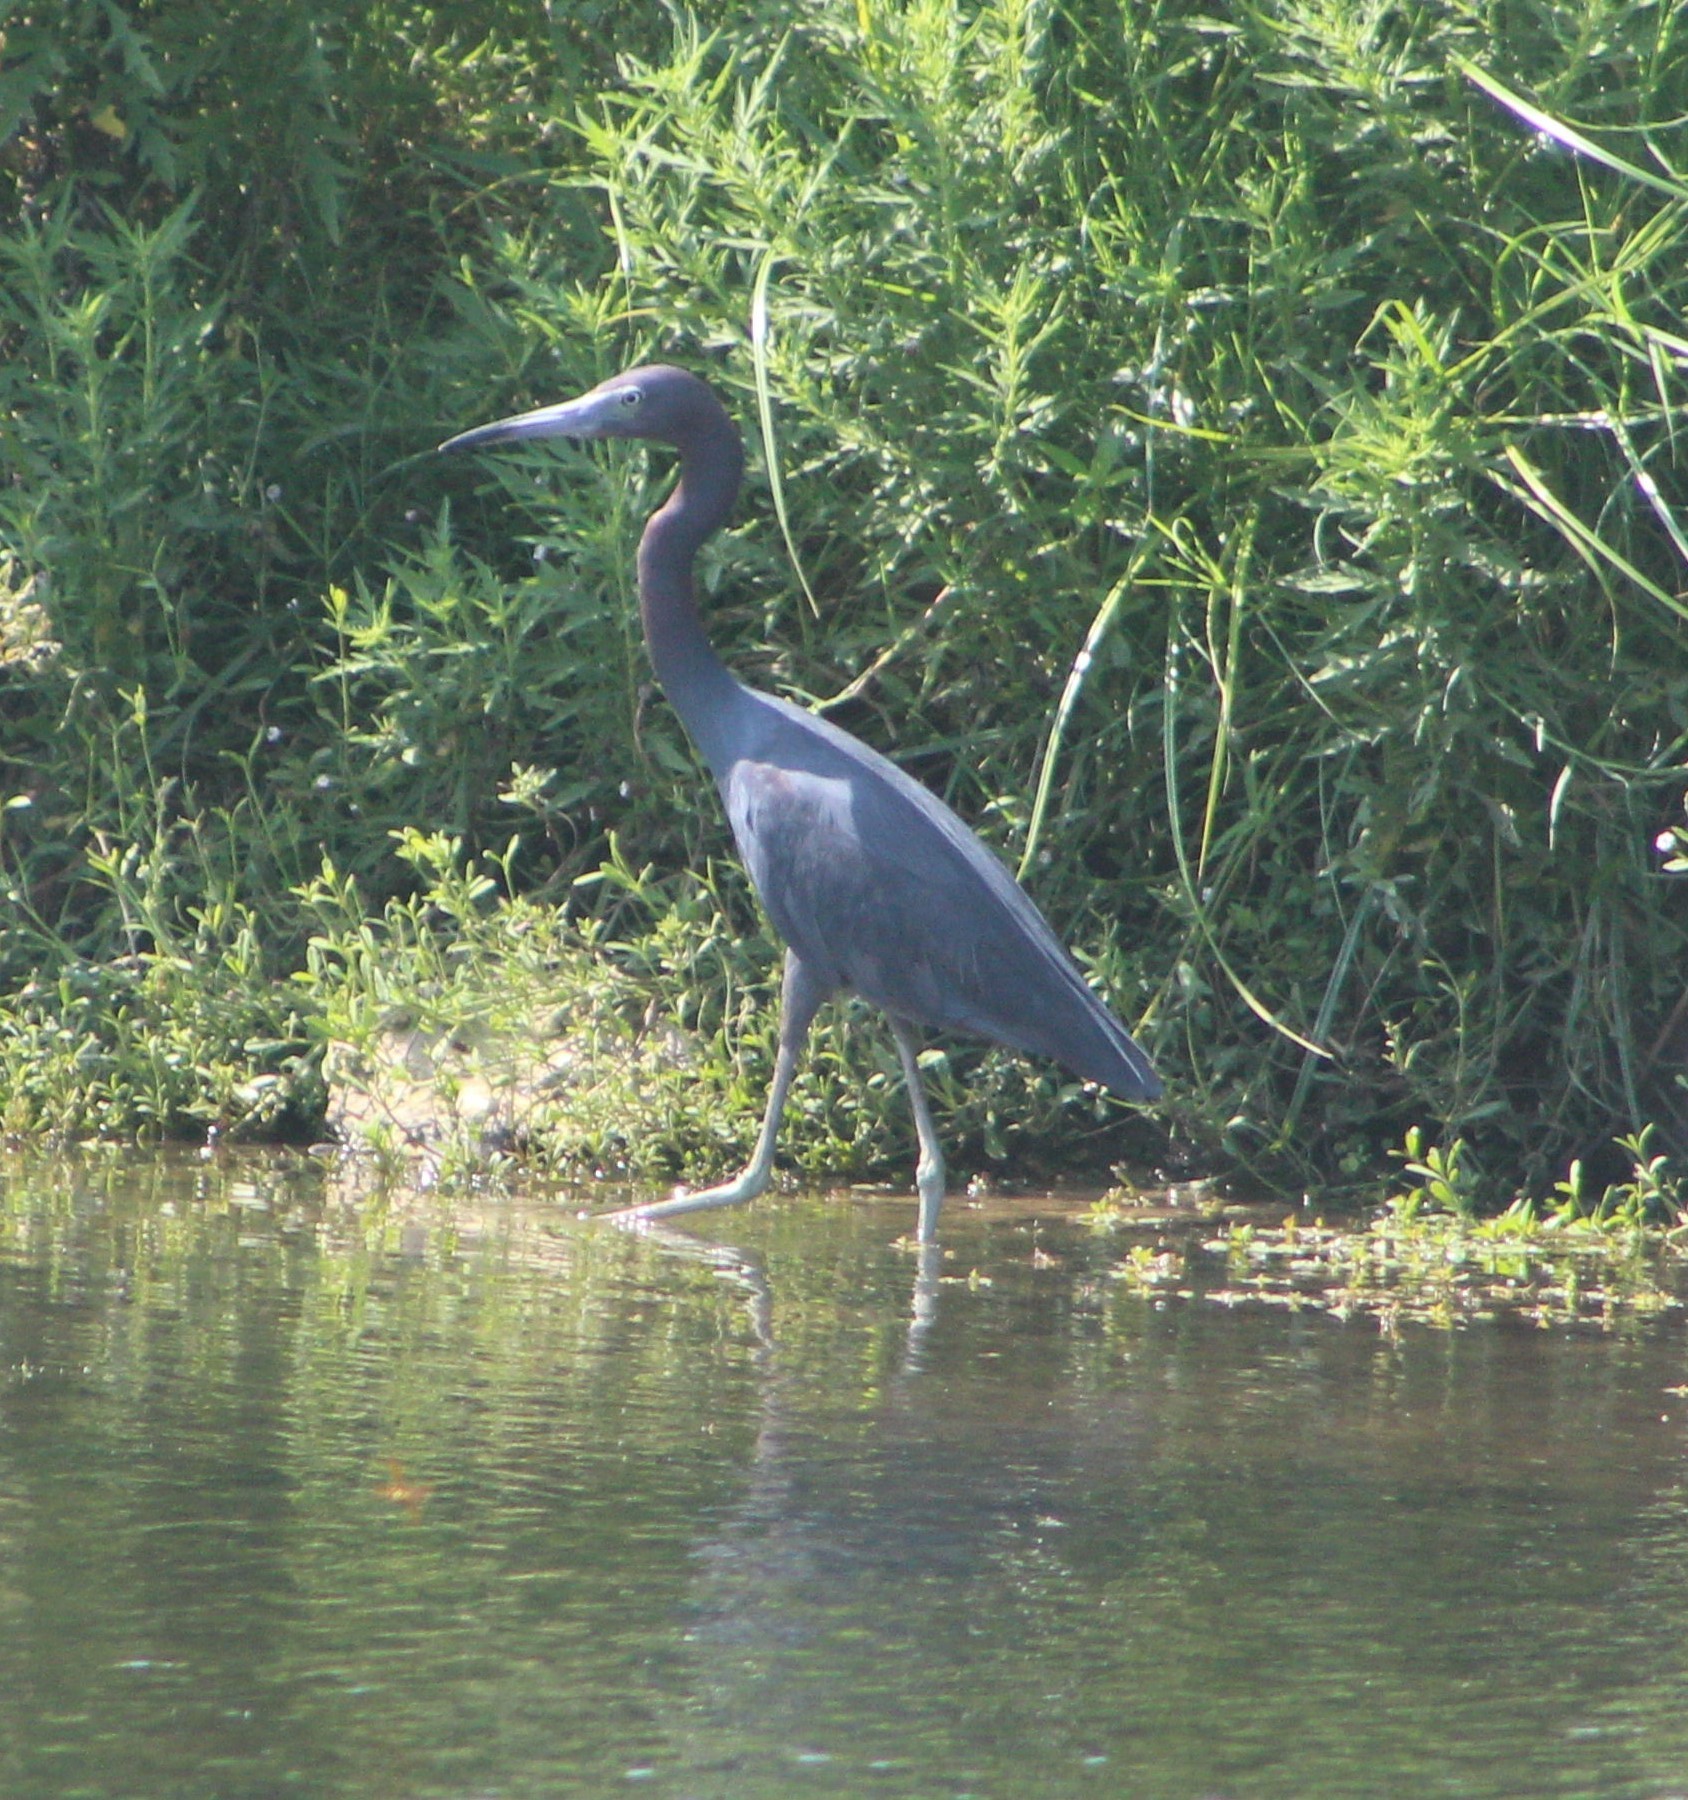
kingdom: Animalia
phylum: Chordata
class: Aves
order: Pelecaniformes
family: Ardeidae
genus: Egretta
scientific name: Egretta caerulea
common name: Little blue heron
